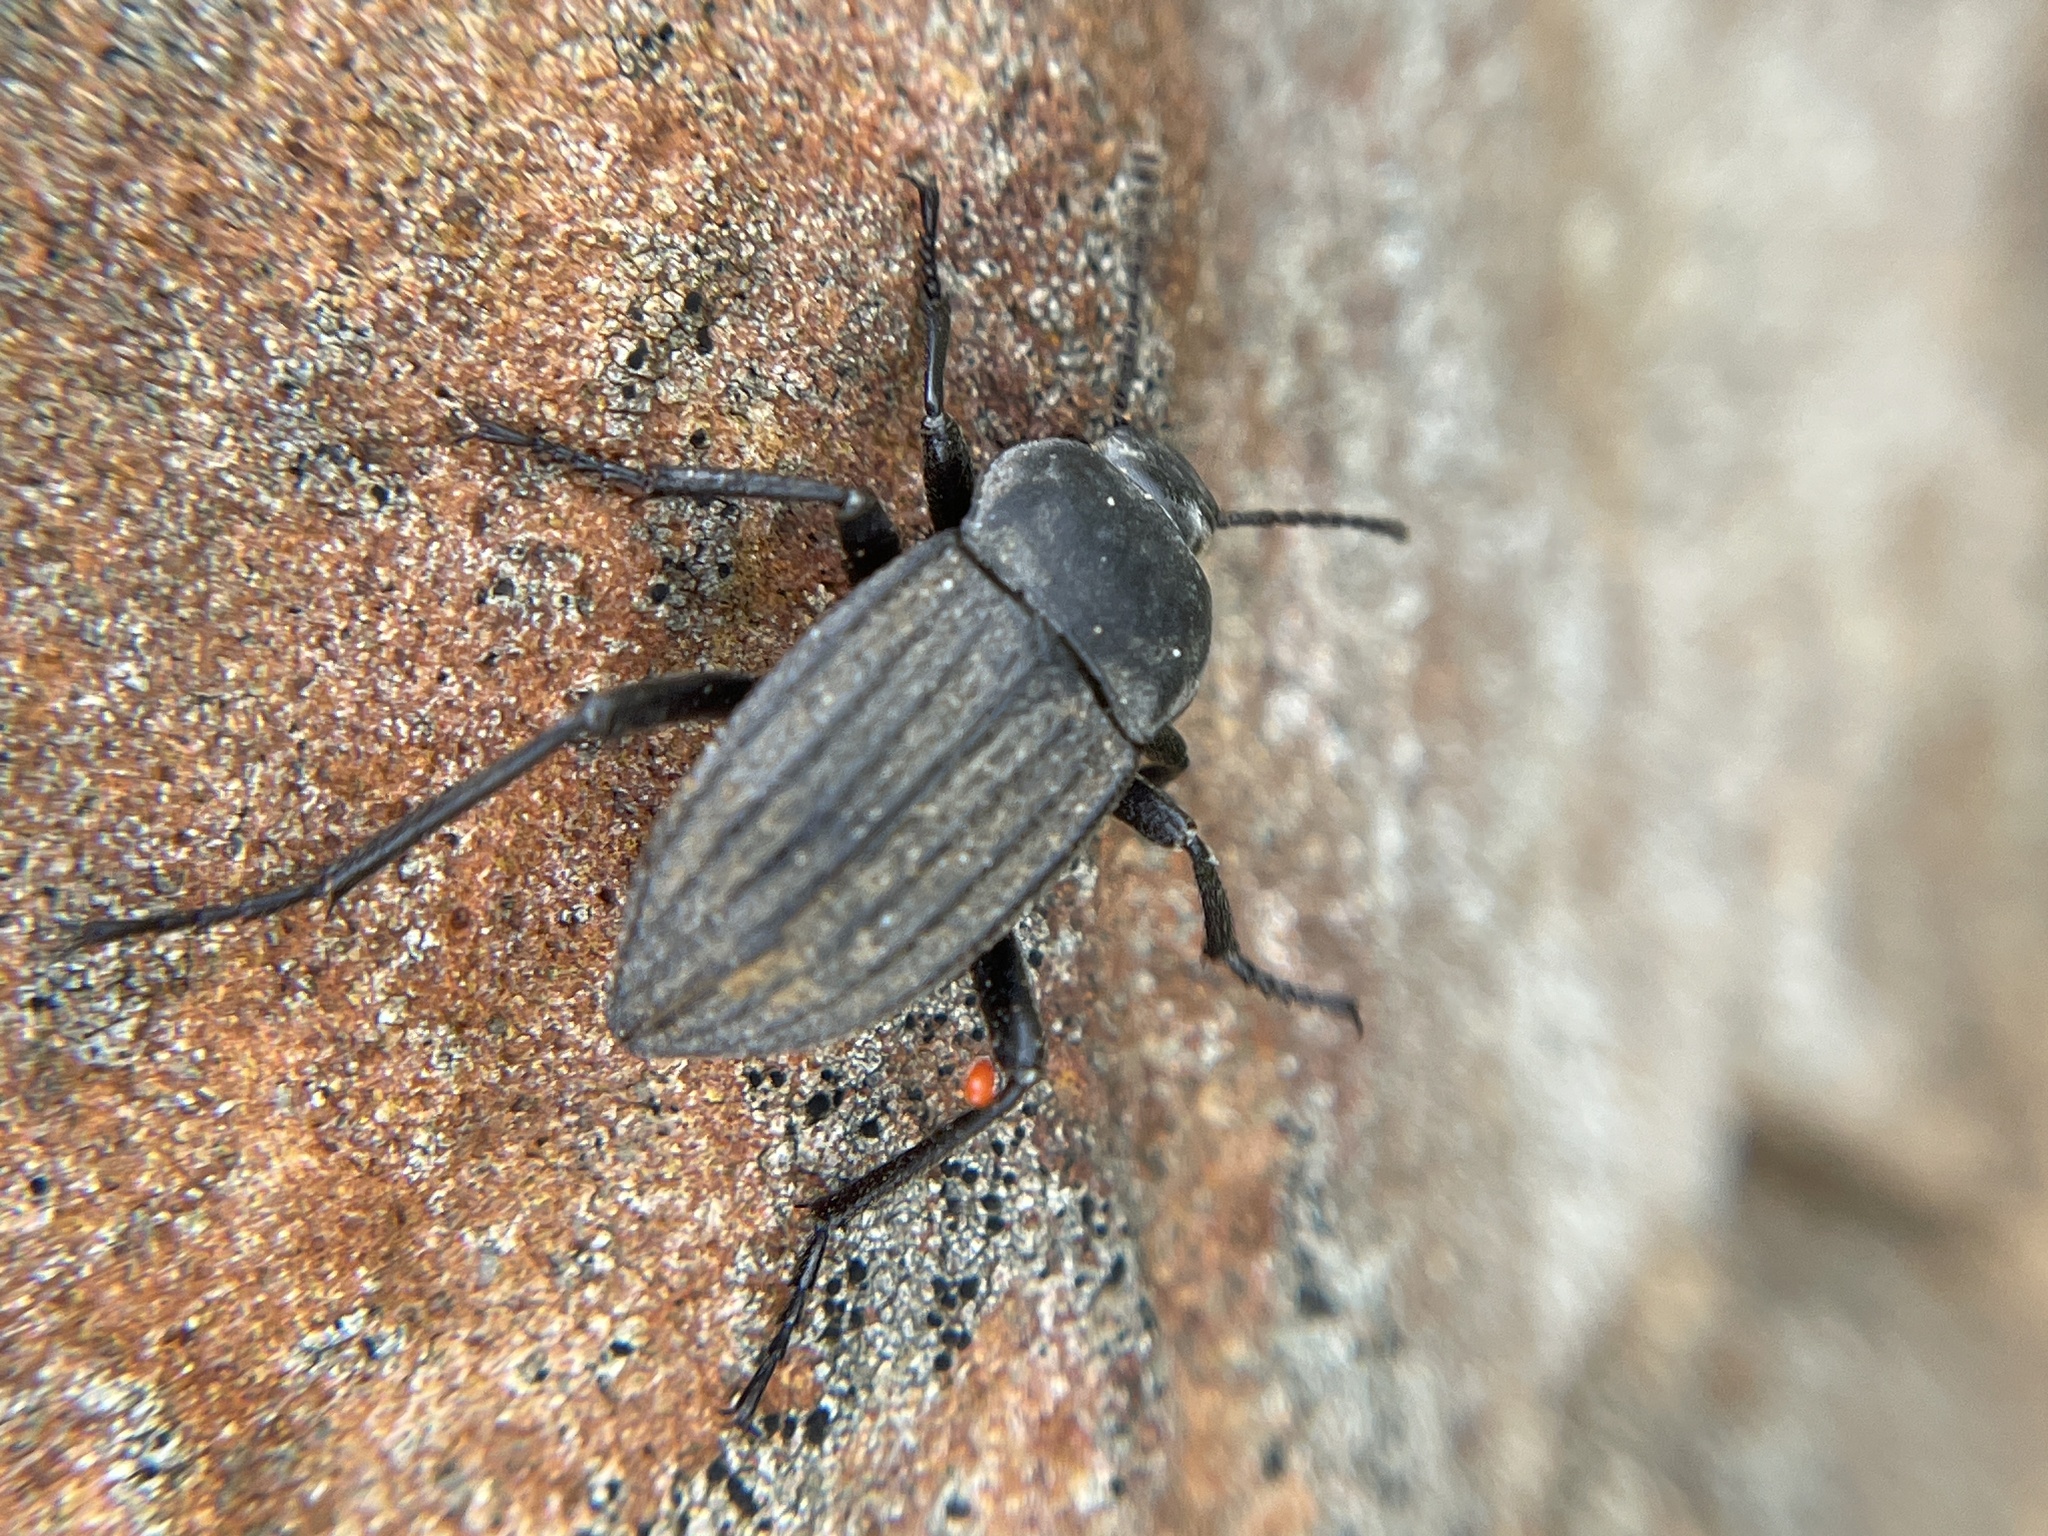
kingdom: Animalia
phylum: Arthropoda
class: Insecta
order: Coleoptera
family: Tenebrionidae
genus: Eleodes
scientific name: Eleodes tricostata
